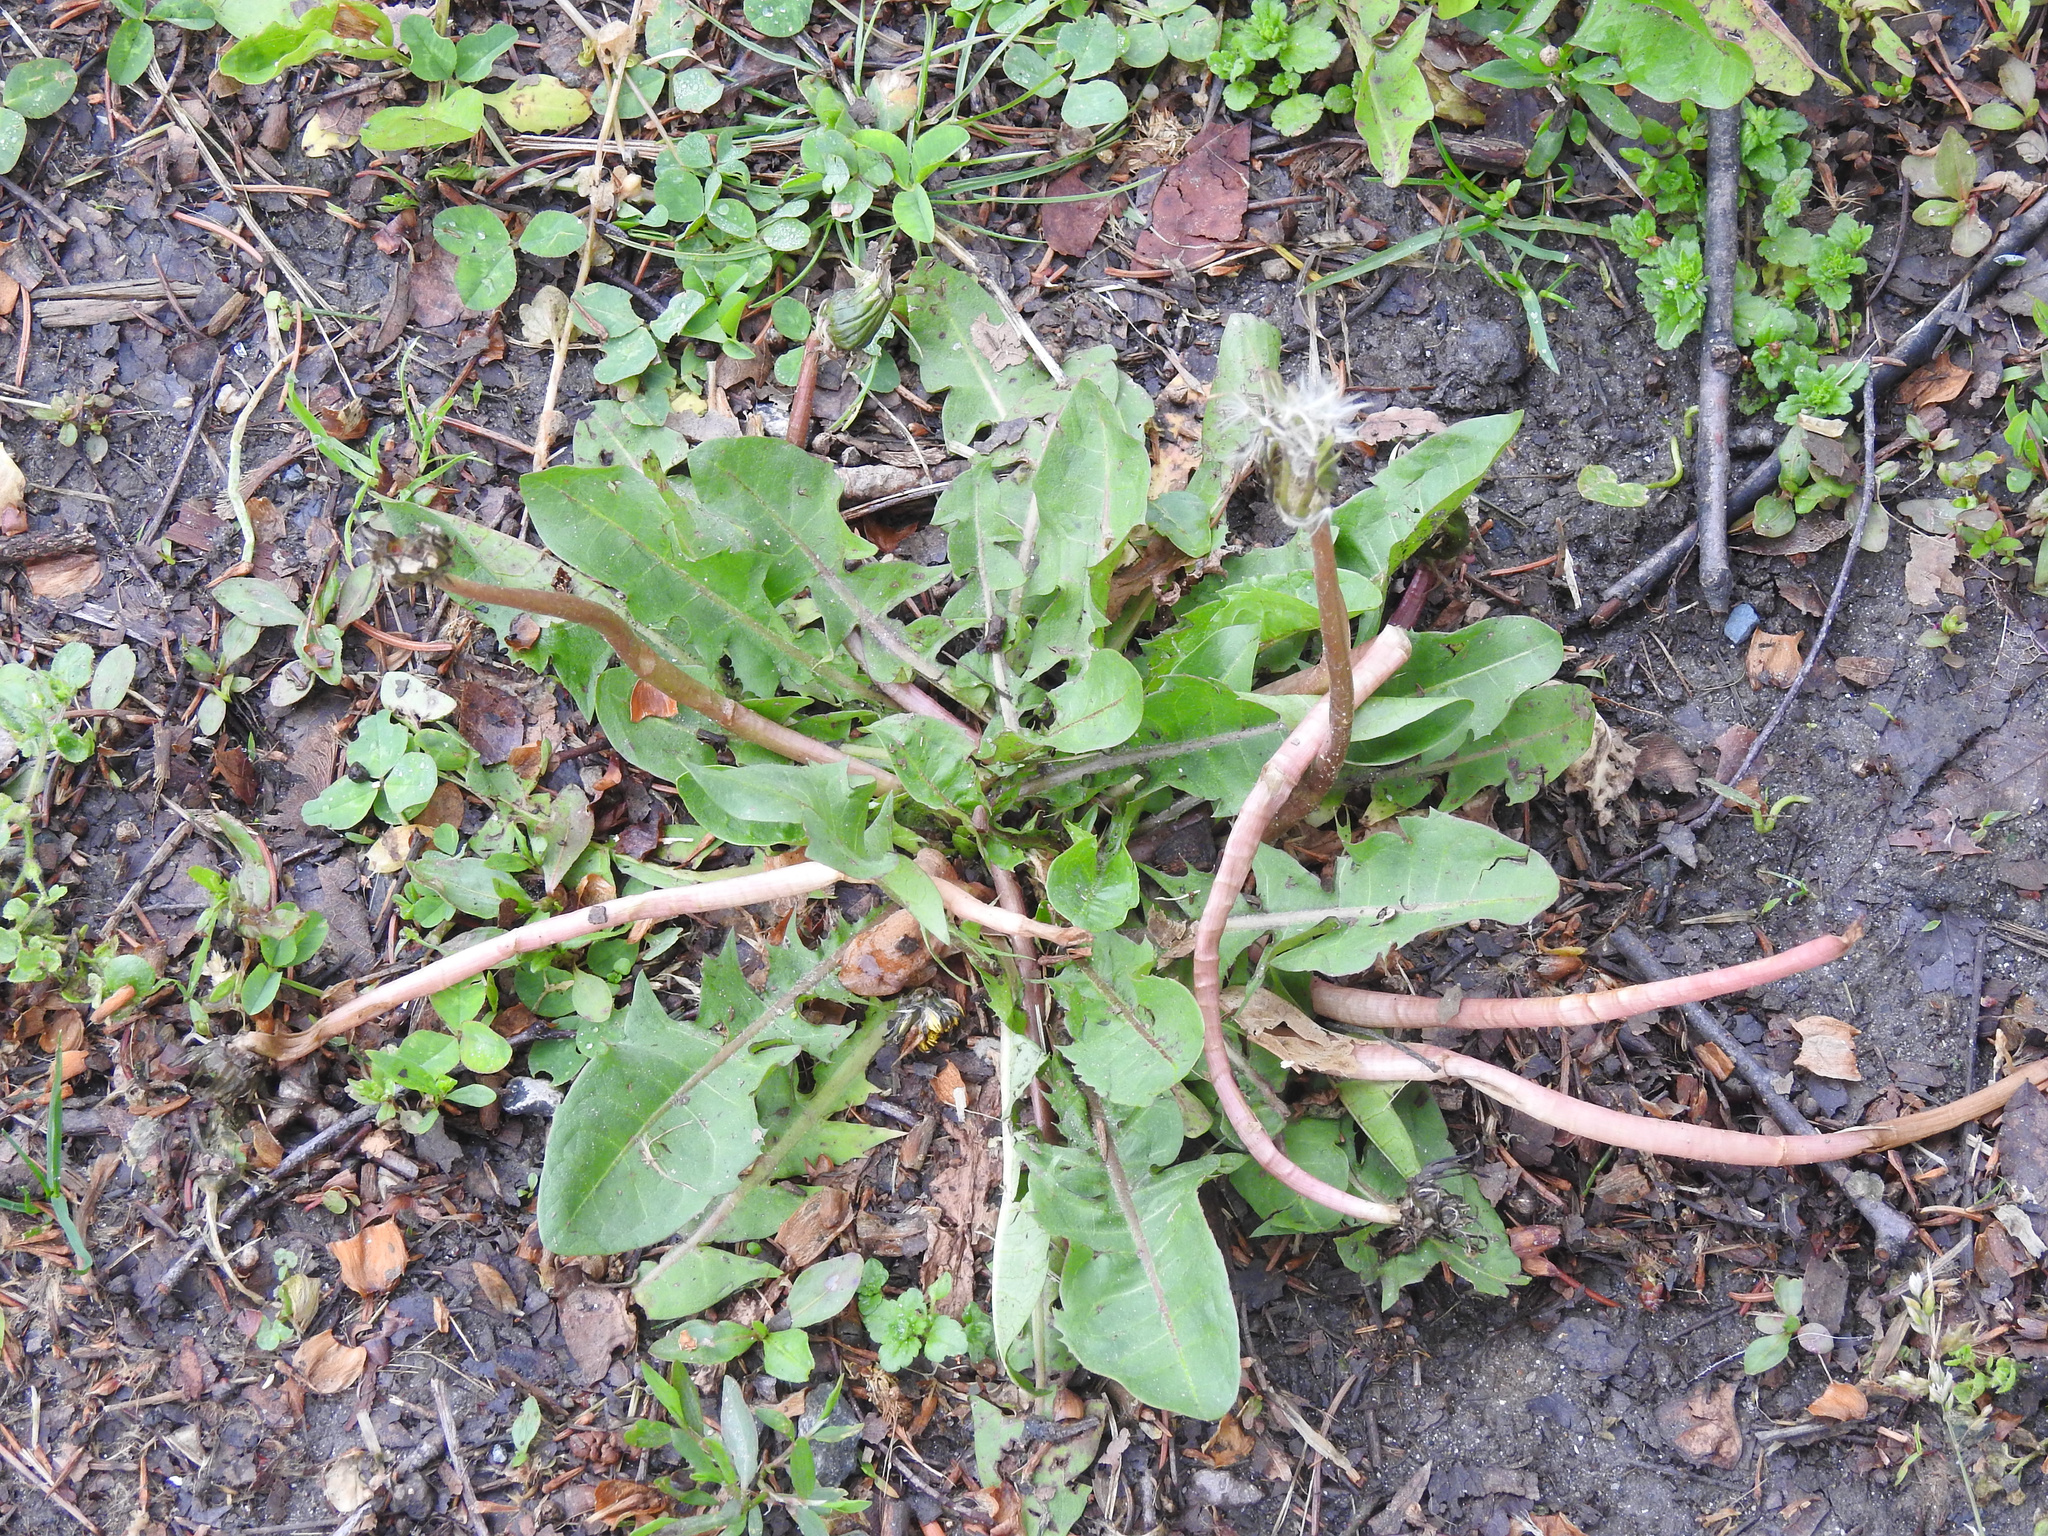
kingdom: Plantae
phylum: Tracheophyta
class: Magnoliopsida
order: Asterales
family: Asteraceae
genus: Taraxacum
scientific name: Taraxacum officinale
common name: Common dandelion
